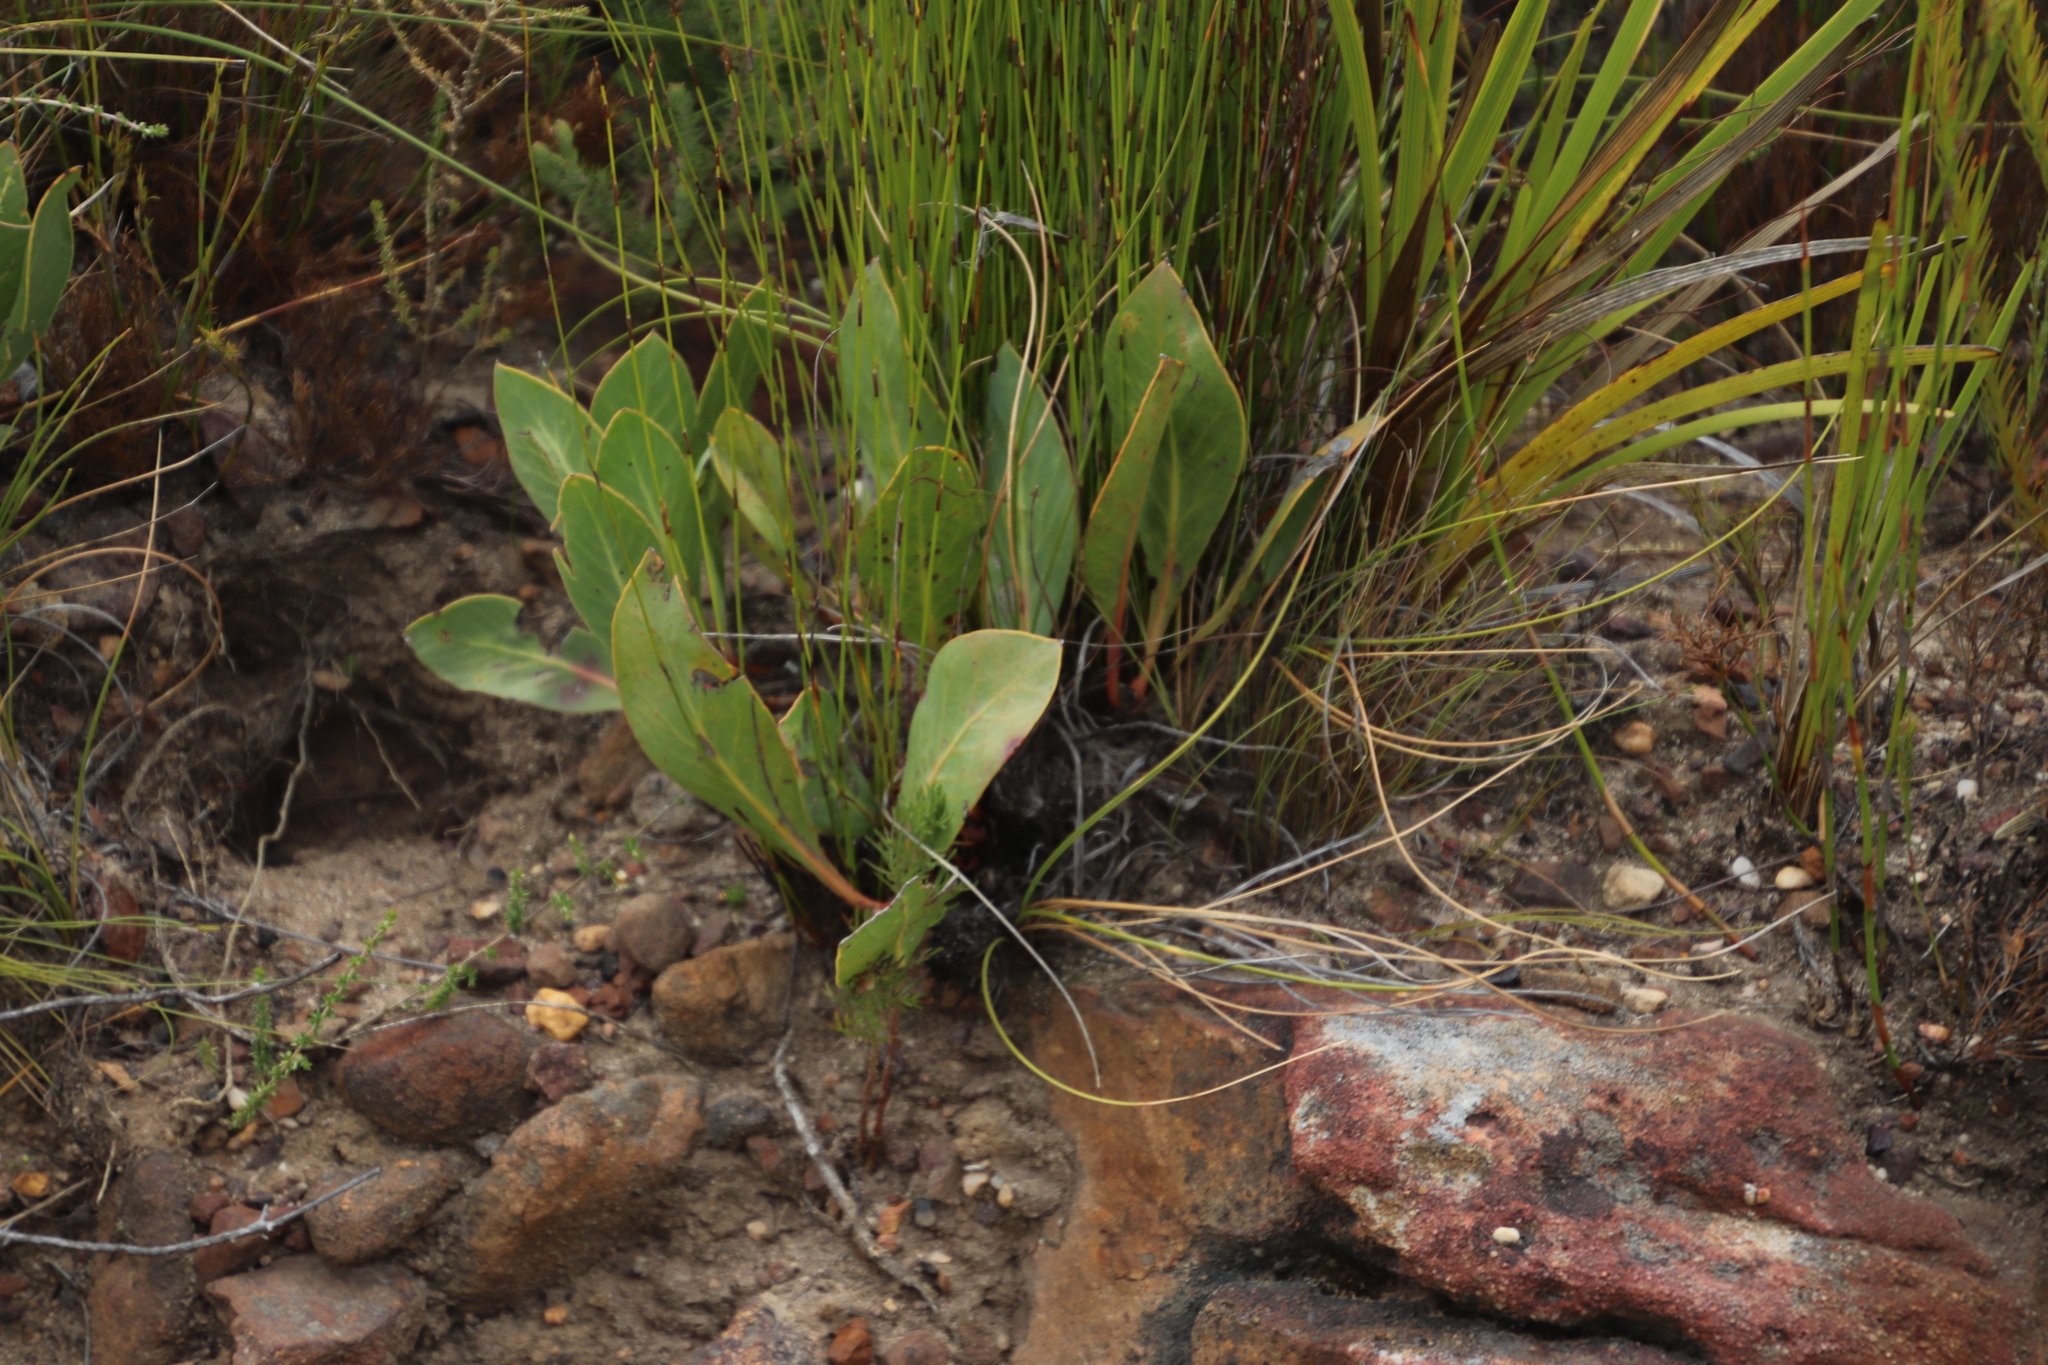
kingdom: Plantae
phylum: Tracheophyta
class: Magnoliopsida
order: Proteales
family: Proteaceae
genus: Protea
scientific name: Protea acaulos
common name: Common ground sugarbush
